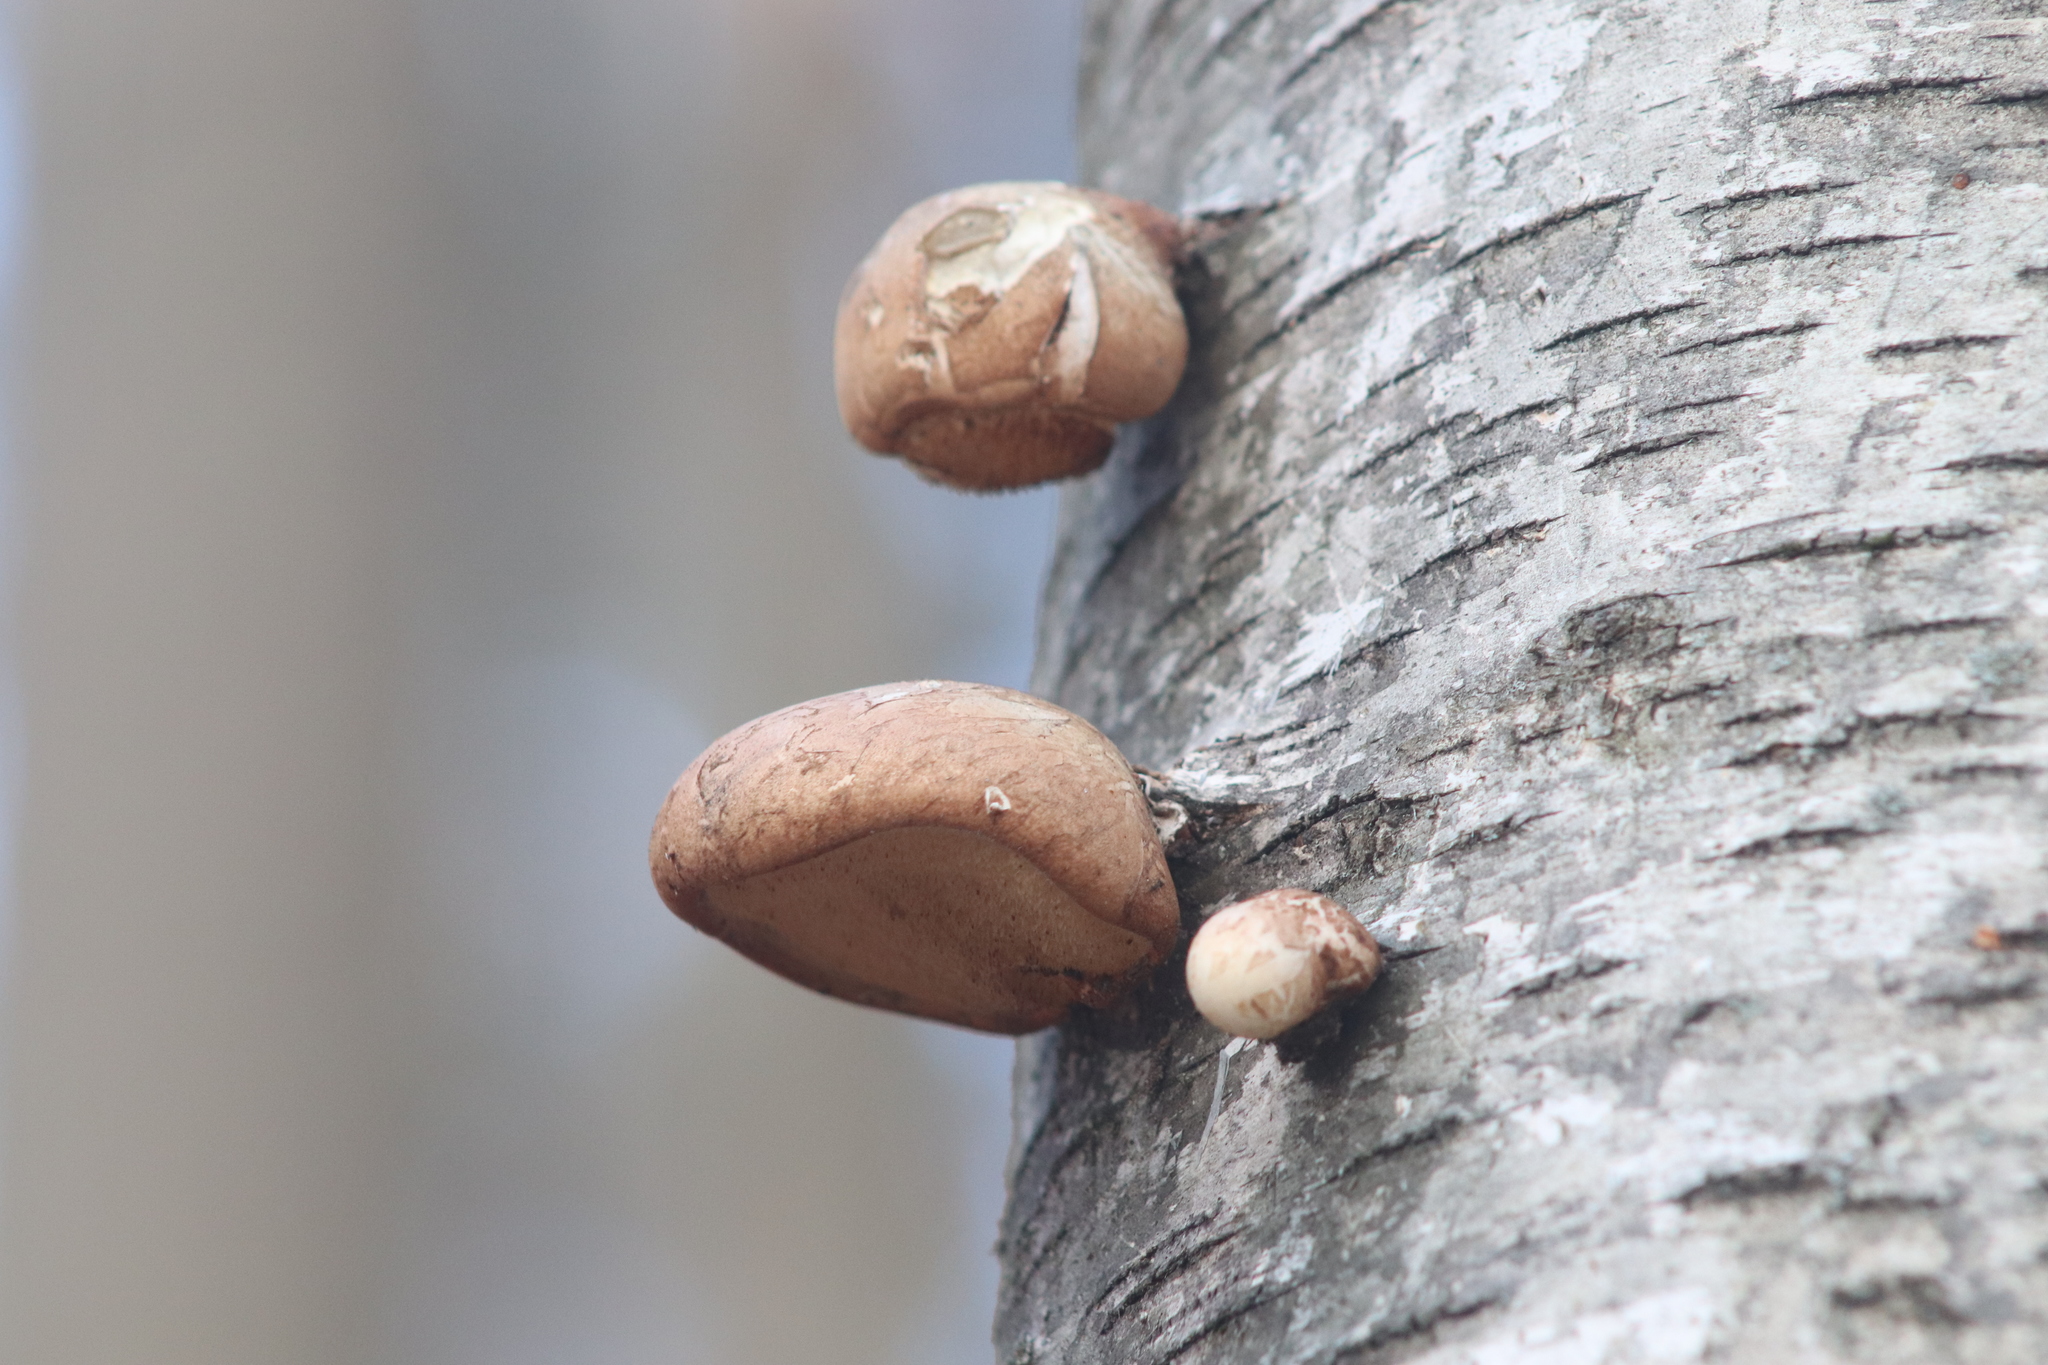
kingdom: Fungi
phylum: Basidiomycota
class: Agaricomycetes
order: Polyporales
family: Fomitopsidaceae
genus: Fomitopsis
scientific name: Fomitopsis betulina
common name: Birch polypore
